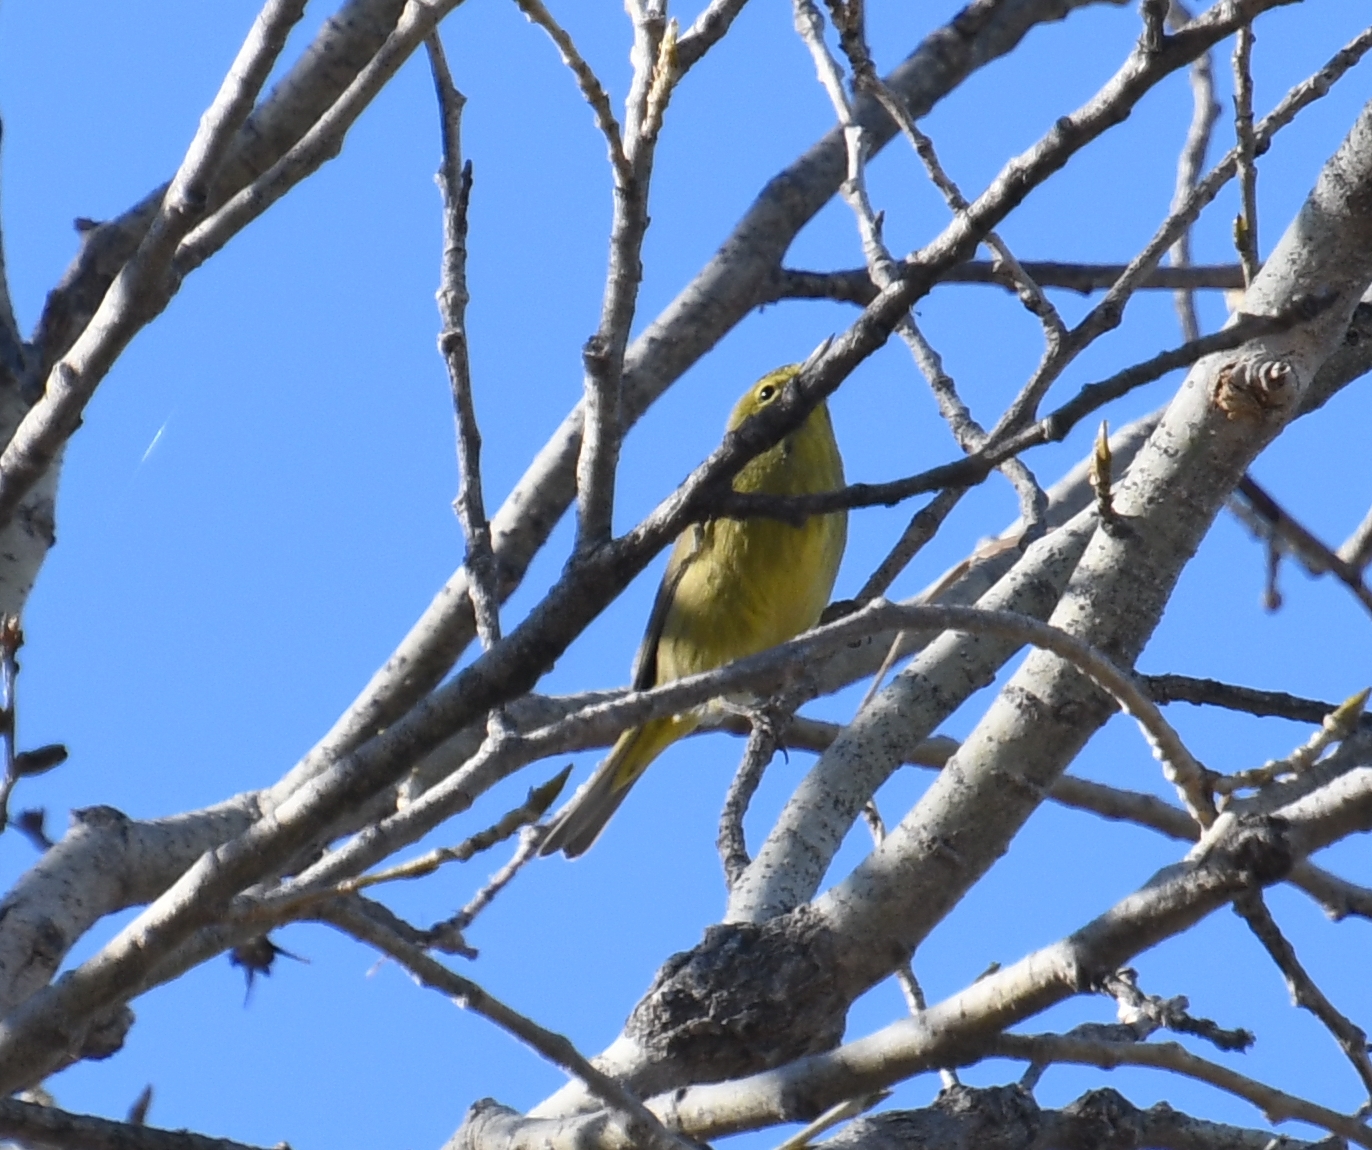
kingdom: Animalia
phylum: Chordata
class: Aves
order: Passeriformes
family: Parulidae
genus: Leiothlypis
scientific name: Leiothlypis celata
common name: Orange-crowned warbler
